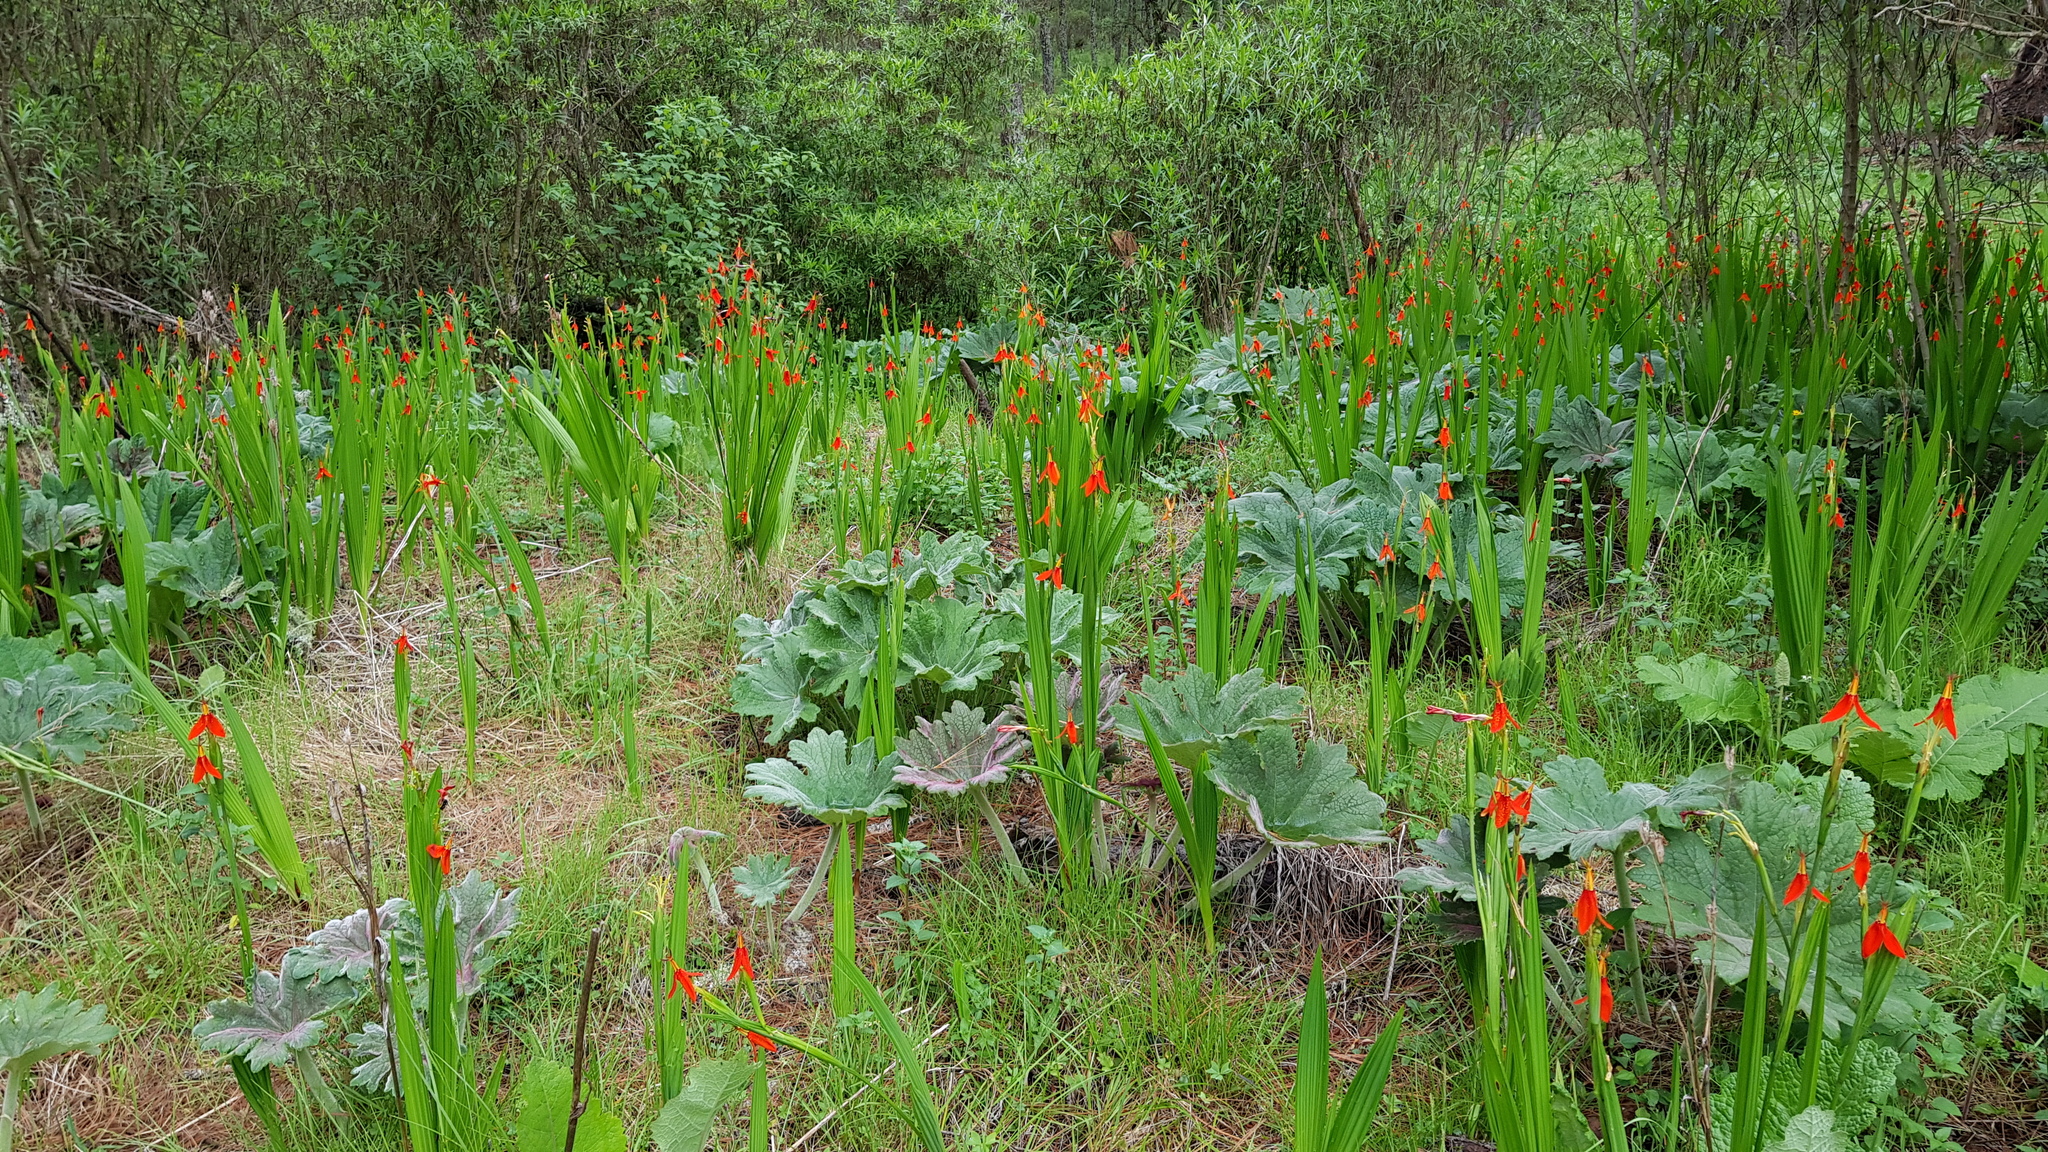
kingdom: Plantae
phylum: Tracheophyta
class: Liliopsida
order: Asparagales
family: Iridaceae
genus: Tigridia
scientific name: Tigridia orthantha
